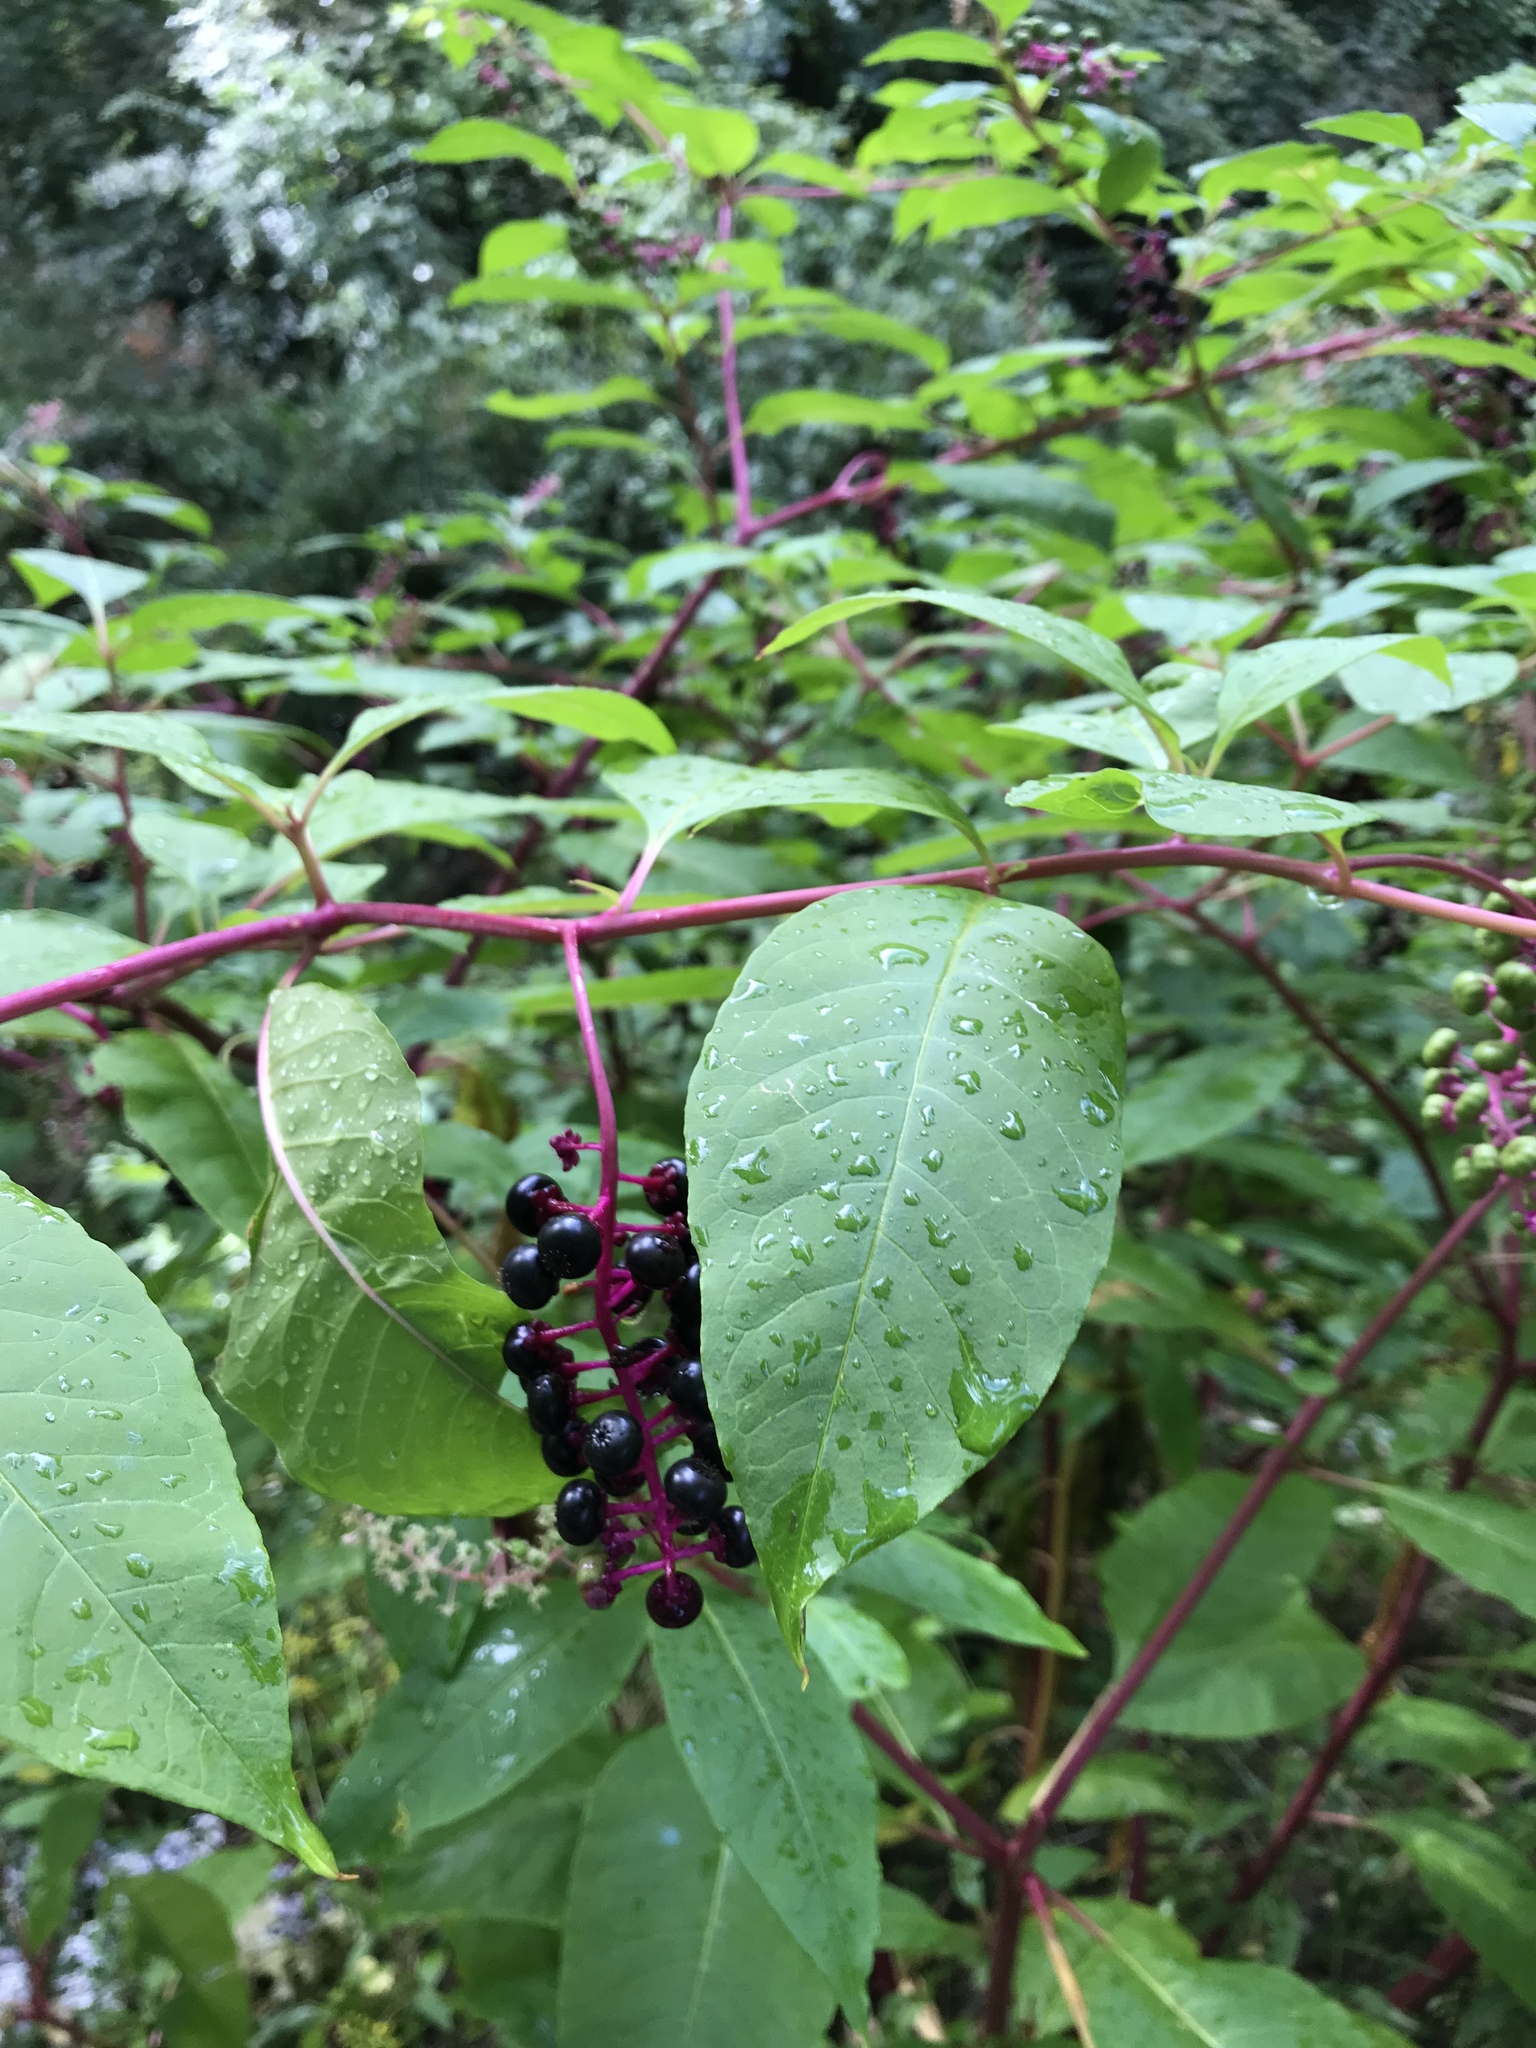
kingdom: Plantae
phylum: Tracheophyta
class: Magnoliopsida
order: Caryophyllales
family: Phytolaccaceae
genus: Phytolacca
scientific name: Phytolacca americana
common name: American pokeweed
